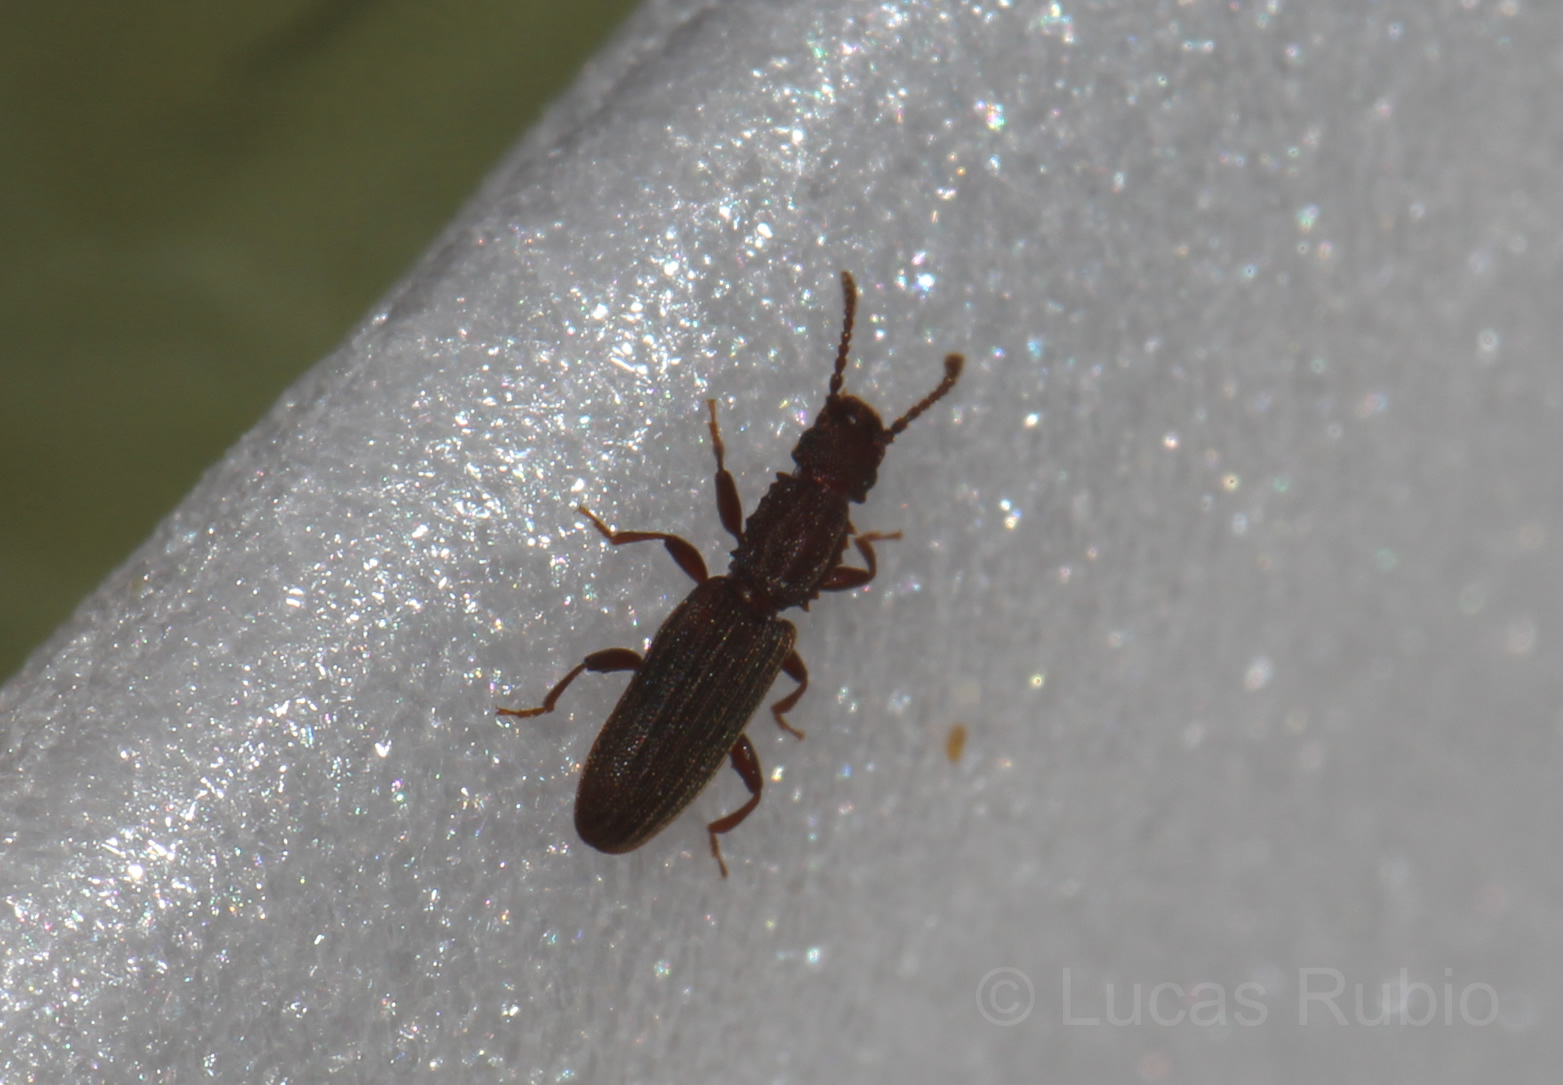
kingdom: Animalia
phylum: Arthropoda
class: Insecta
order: Coleoptera
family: Silvanidae
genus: Oryzaephilus
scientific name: Oryzaephilus surinamensis
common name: Sawtoothed grain beetle
